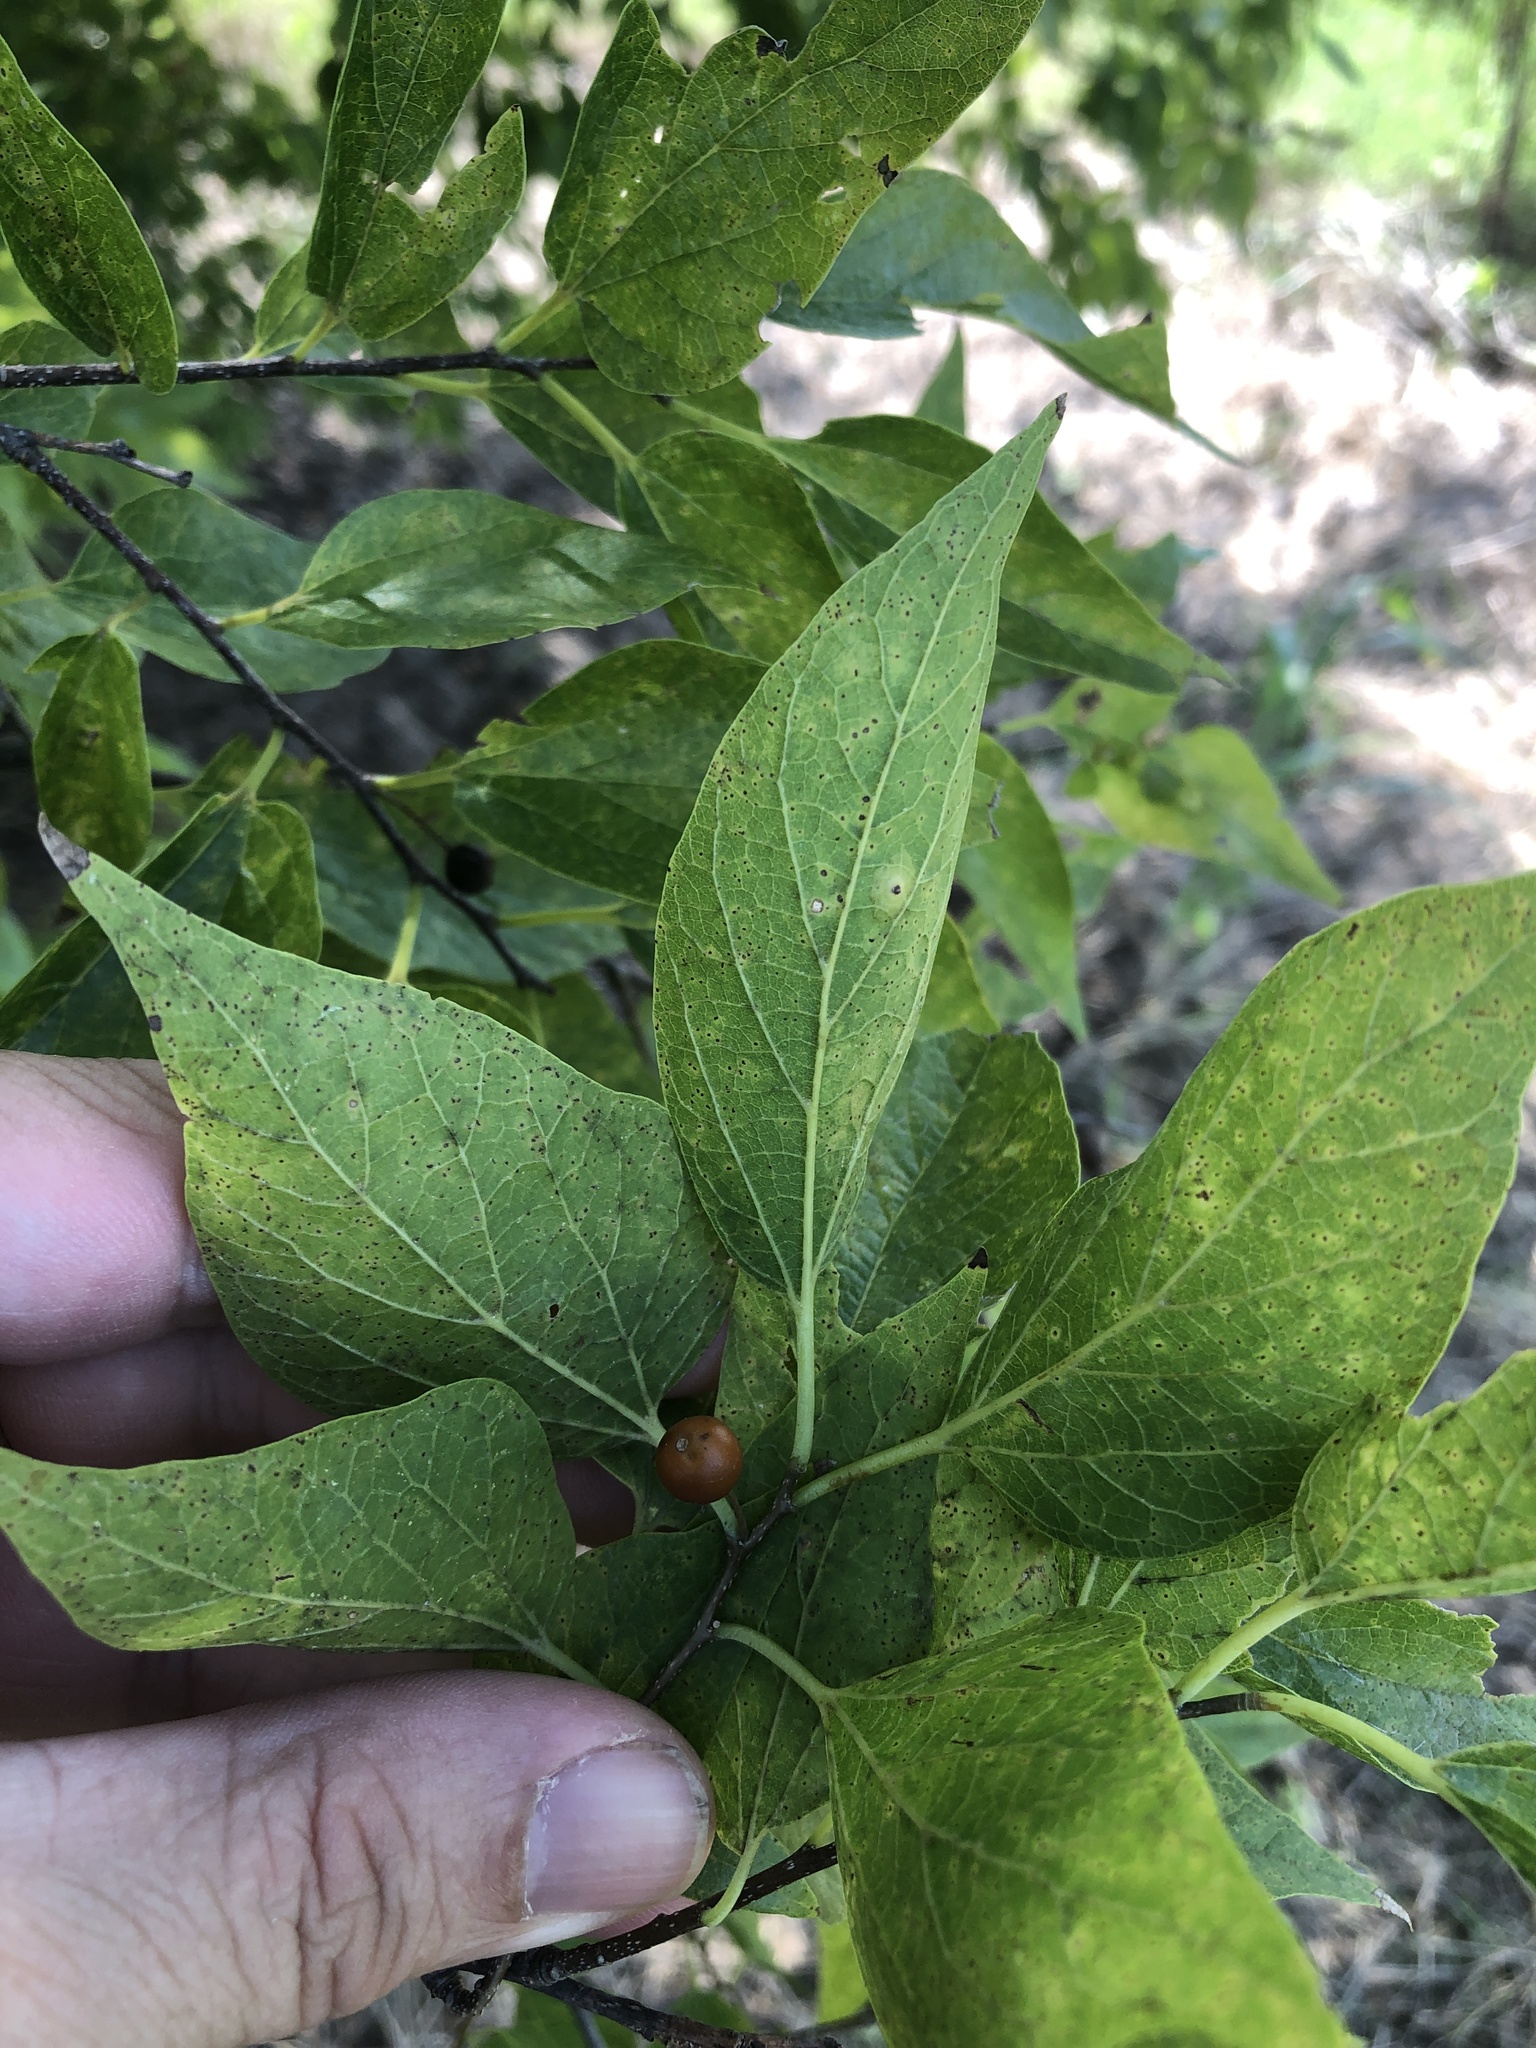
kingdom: Plantae
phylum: Tracheophyta
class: Magnoliopsida
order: Rosales
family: Cannabaceae
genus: Celtis
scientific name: Celtis laevigata
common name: Sugarberry
